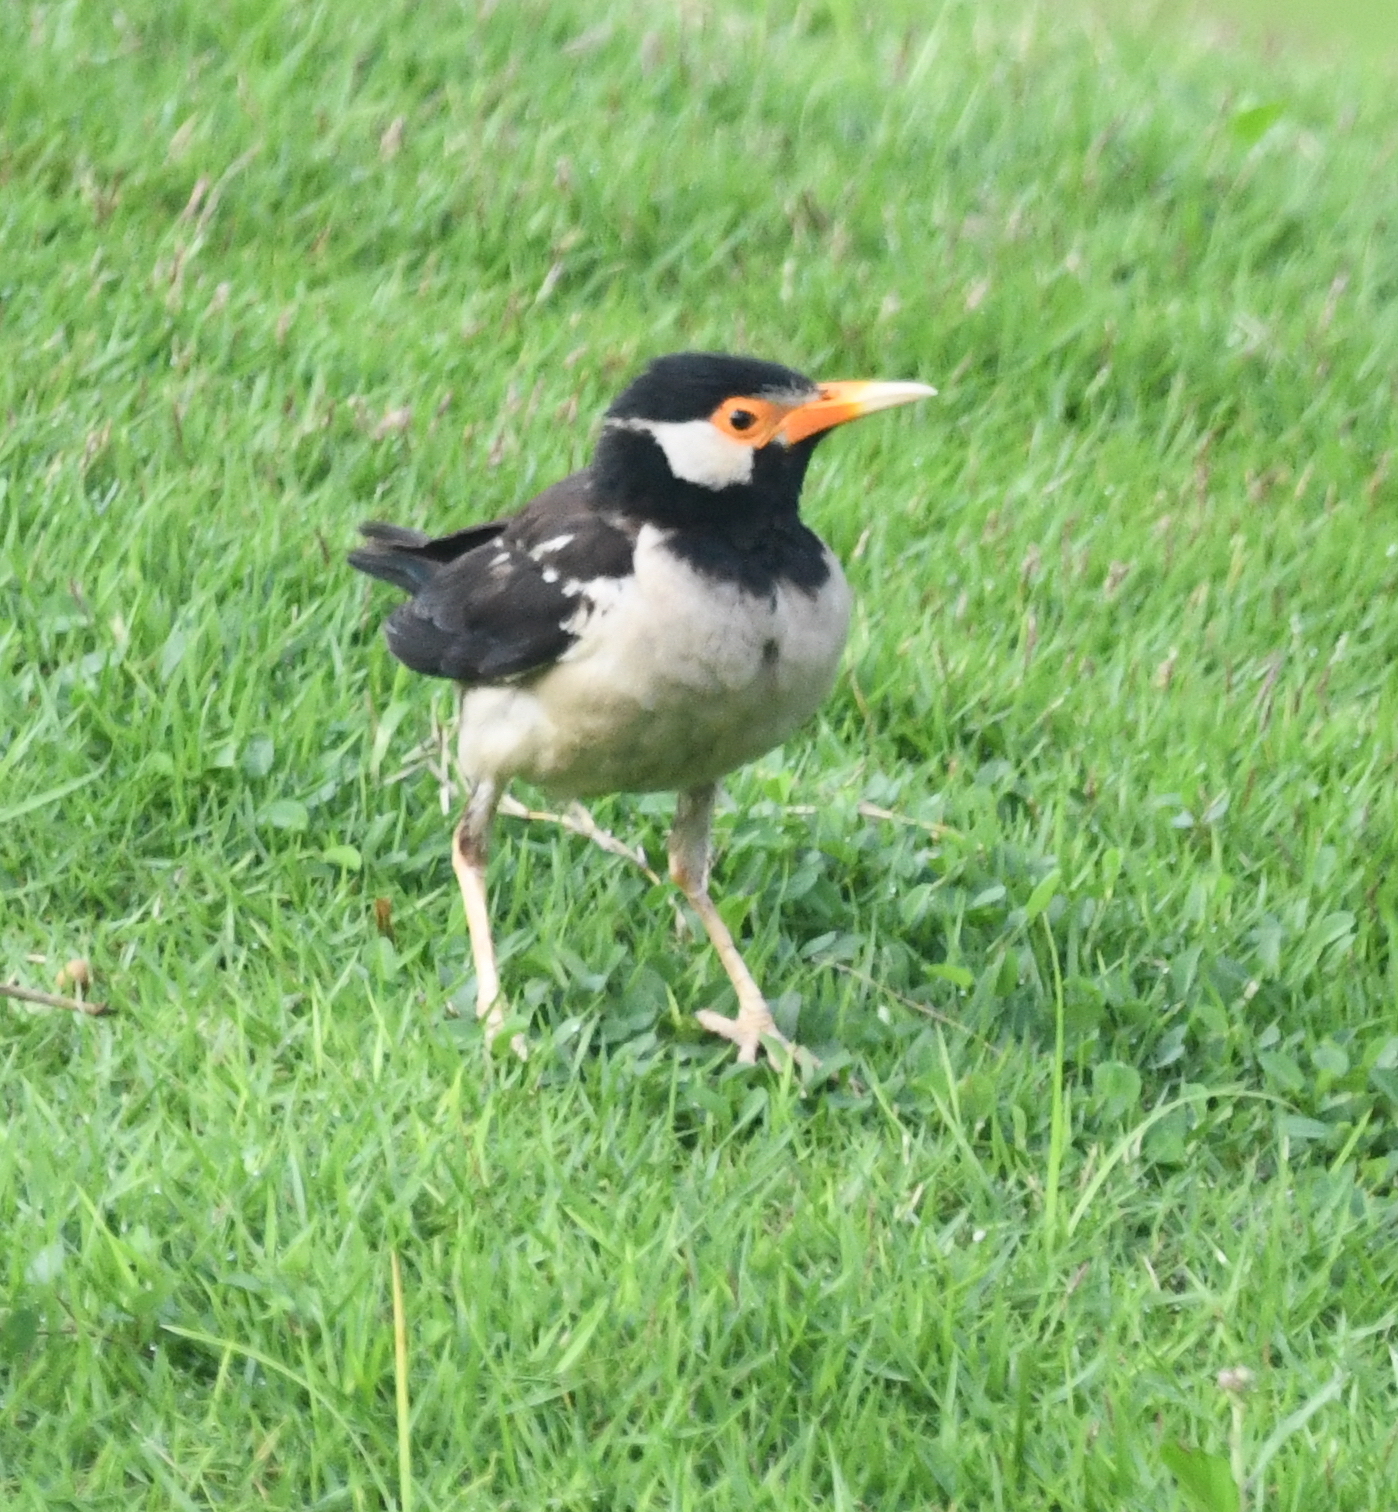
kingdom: Animalia
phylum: Chordata
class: Aves
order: Passeriformes
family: Sturnidae
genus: Gracupica
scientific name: Gracupica contra
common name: Pied myna
